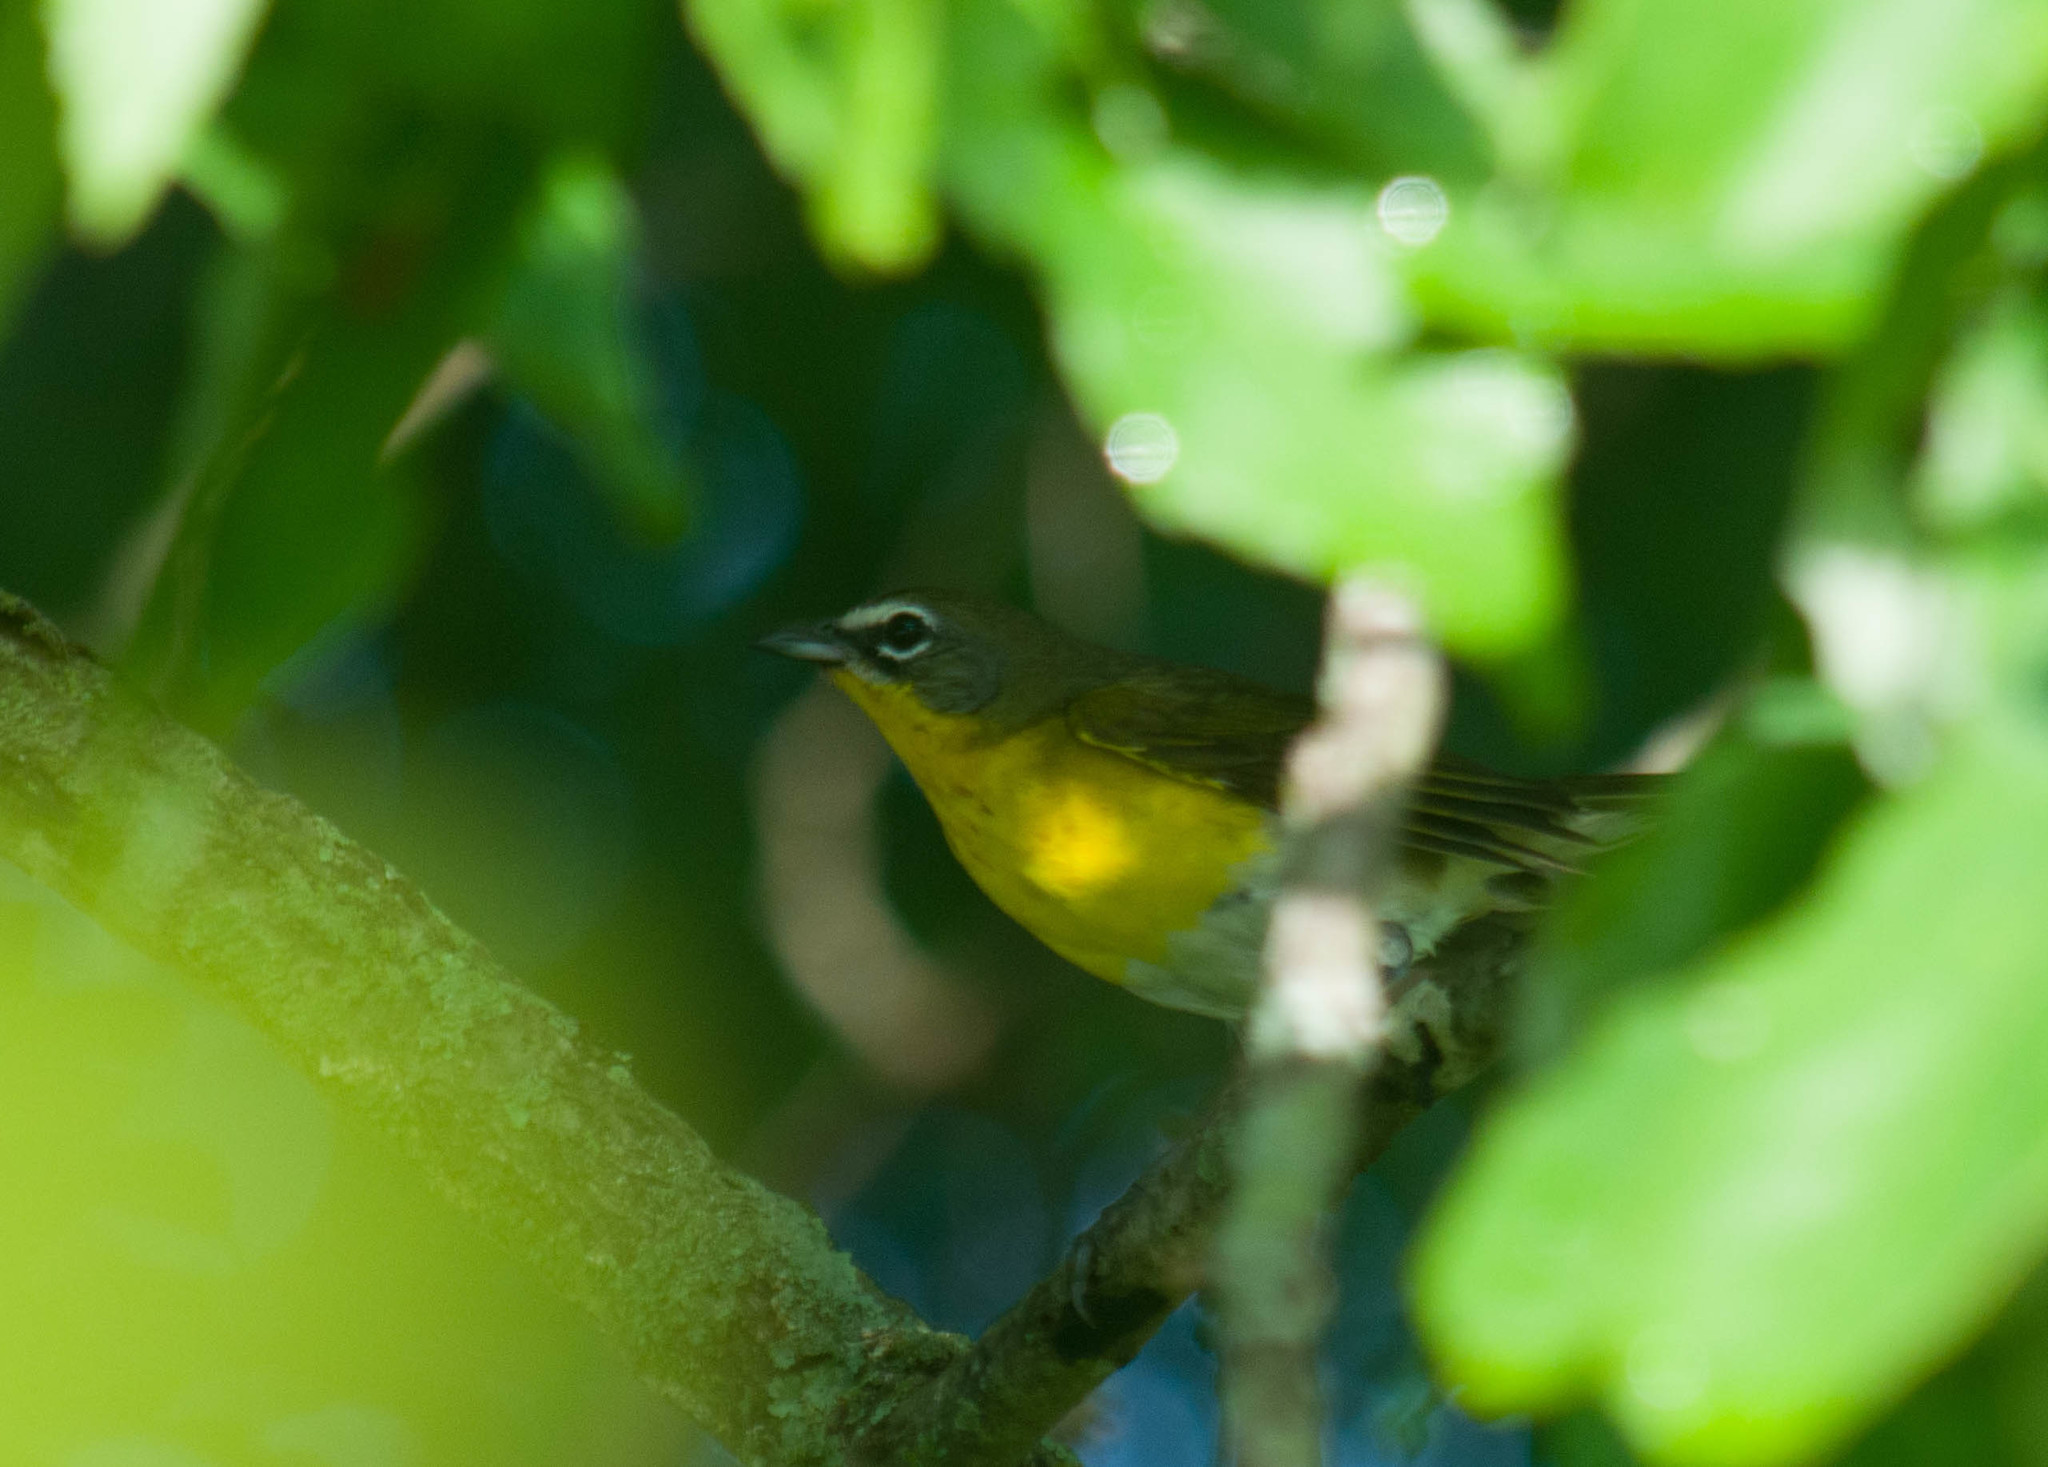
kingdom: Animalia
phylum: Chordata
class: Aves
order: Passeriformes
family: Parulidae
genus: Icteria
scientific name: Icteria virens
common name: Yellow-breasted chat
